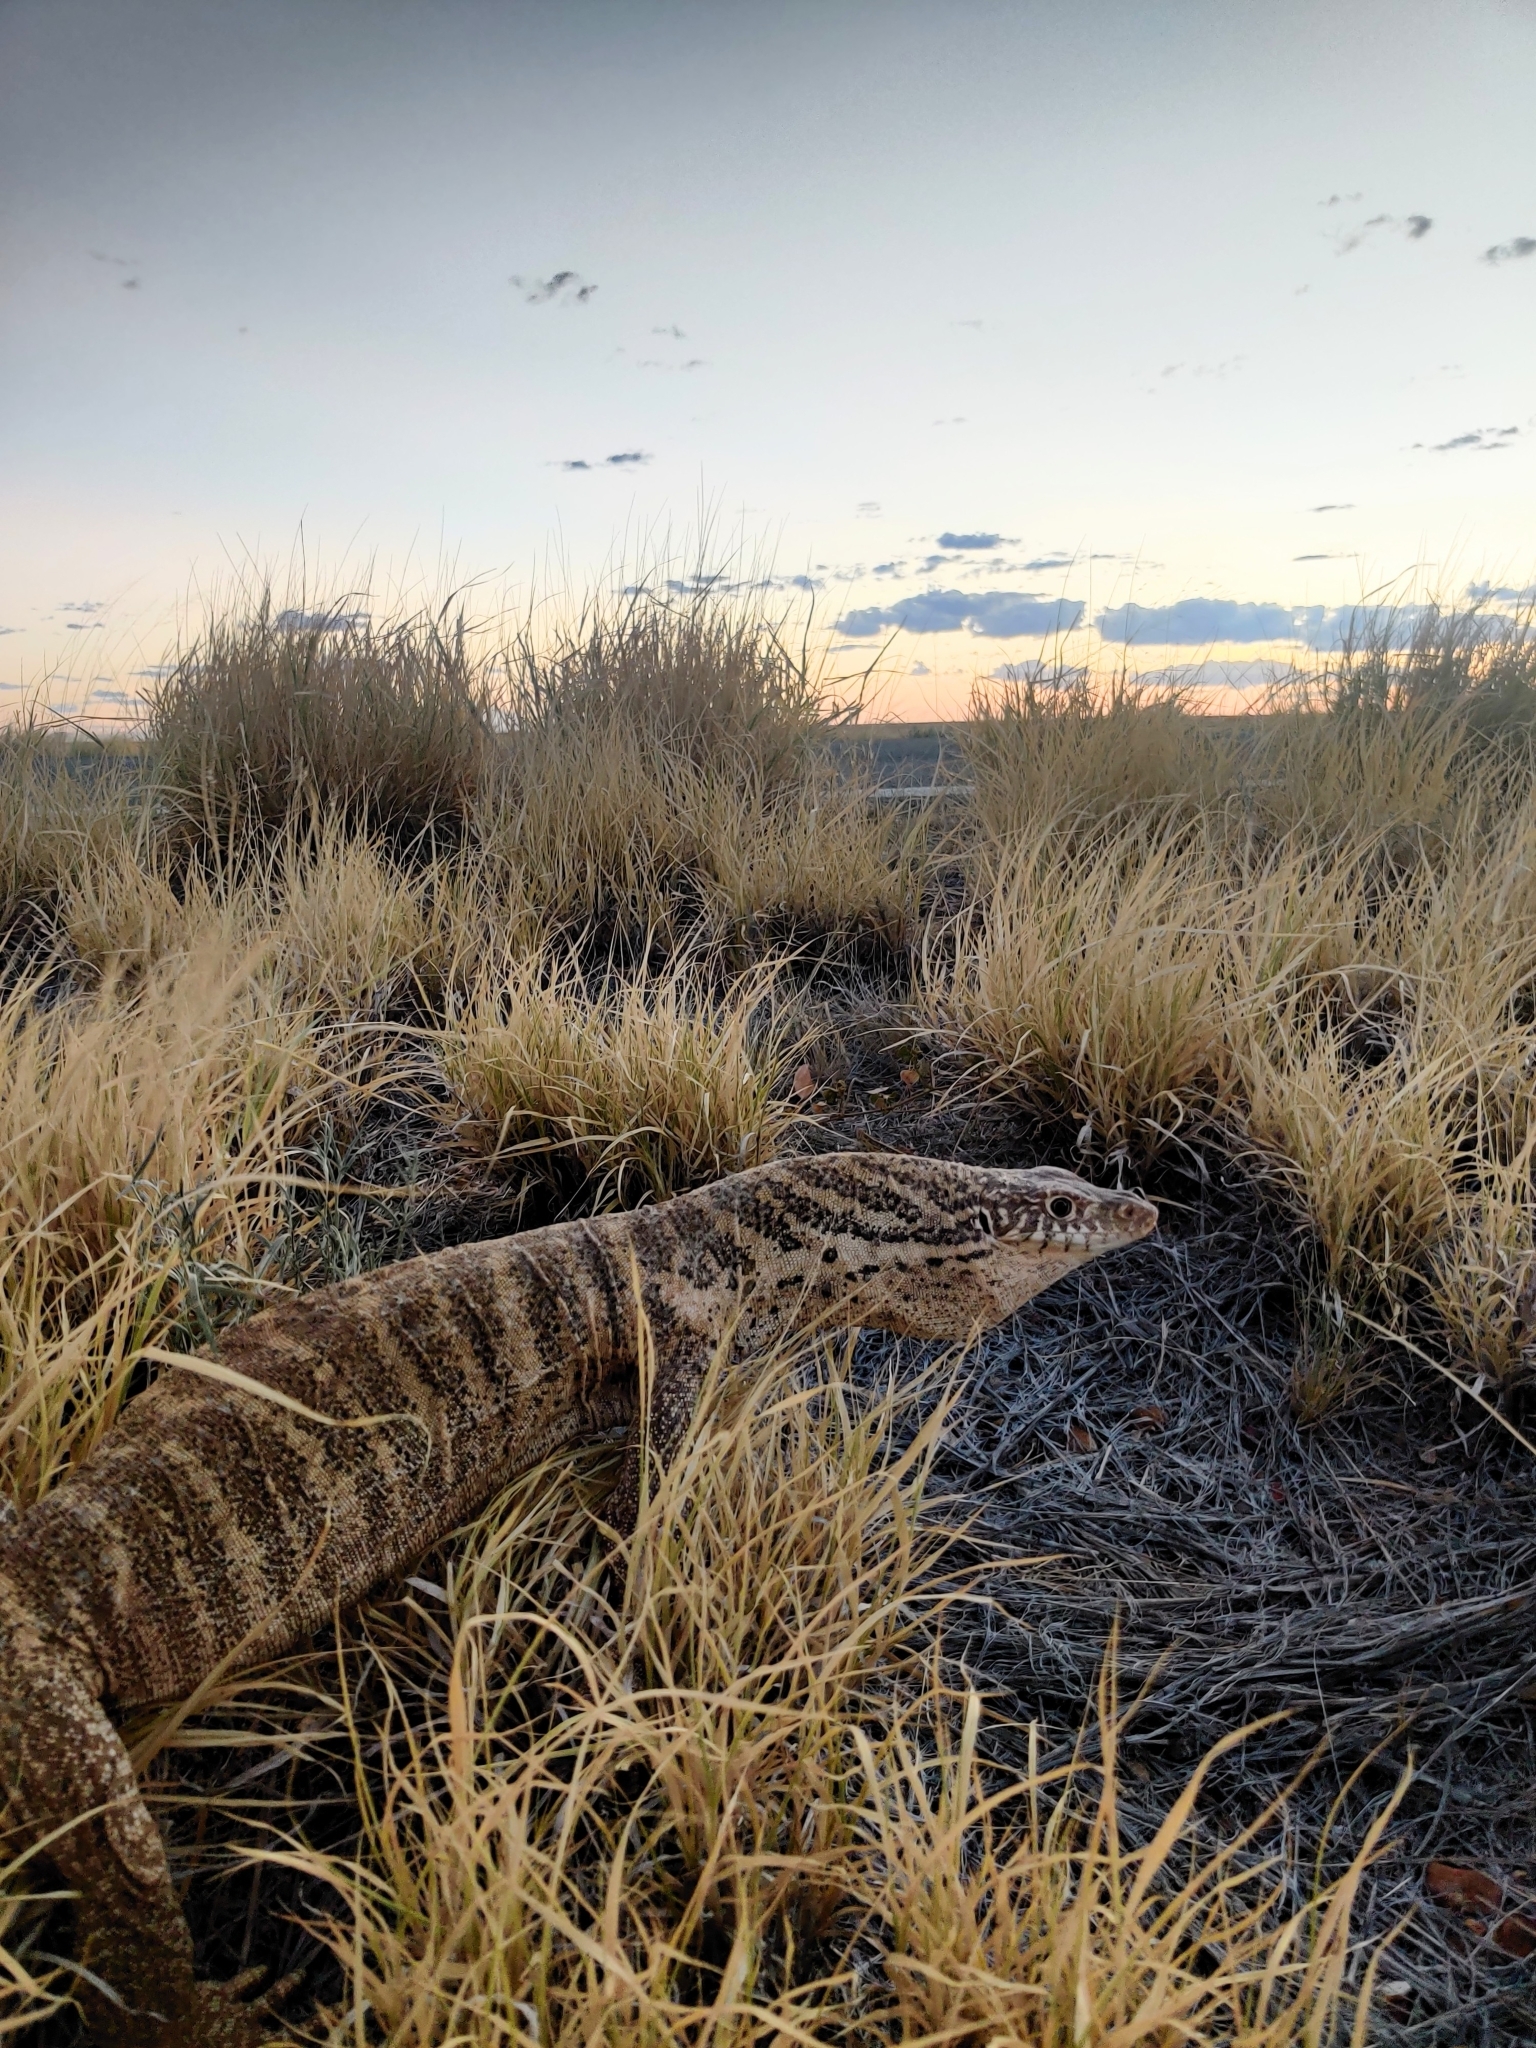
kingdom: Animalia
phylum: Chordata
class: Squamata
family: Varanidae
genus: Varanus
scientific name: Varanus spenceri
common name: Spencer's monitor
